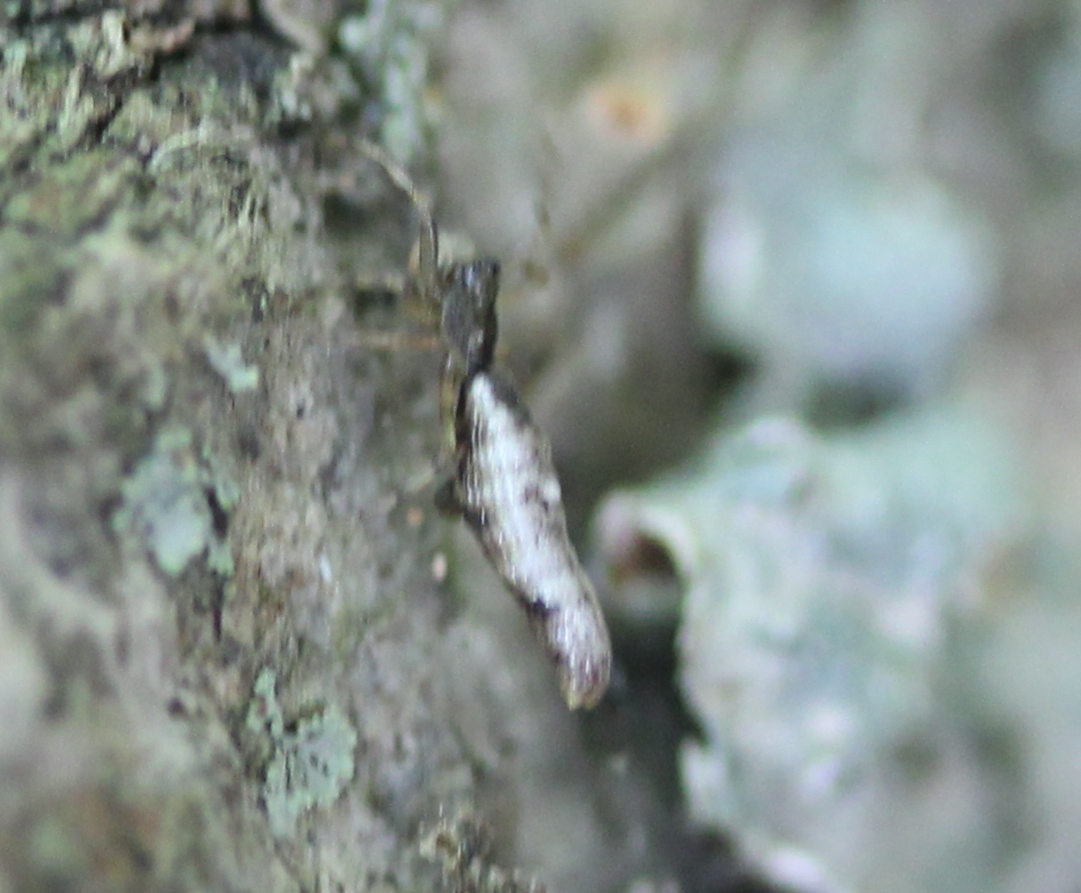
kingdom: Animalia
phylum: Arthropoda
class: Arachnida
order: Araneae
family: Araneidae
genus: Micrathena
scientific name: Micrathena gracilis
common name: Orb weavers
